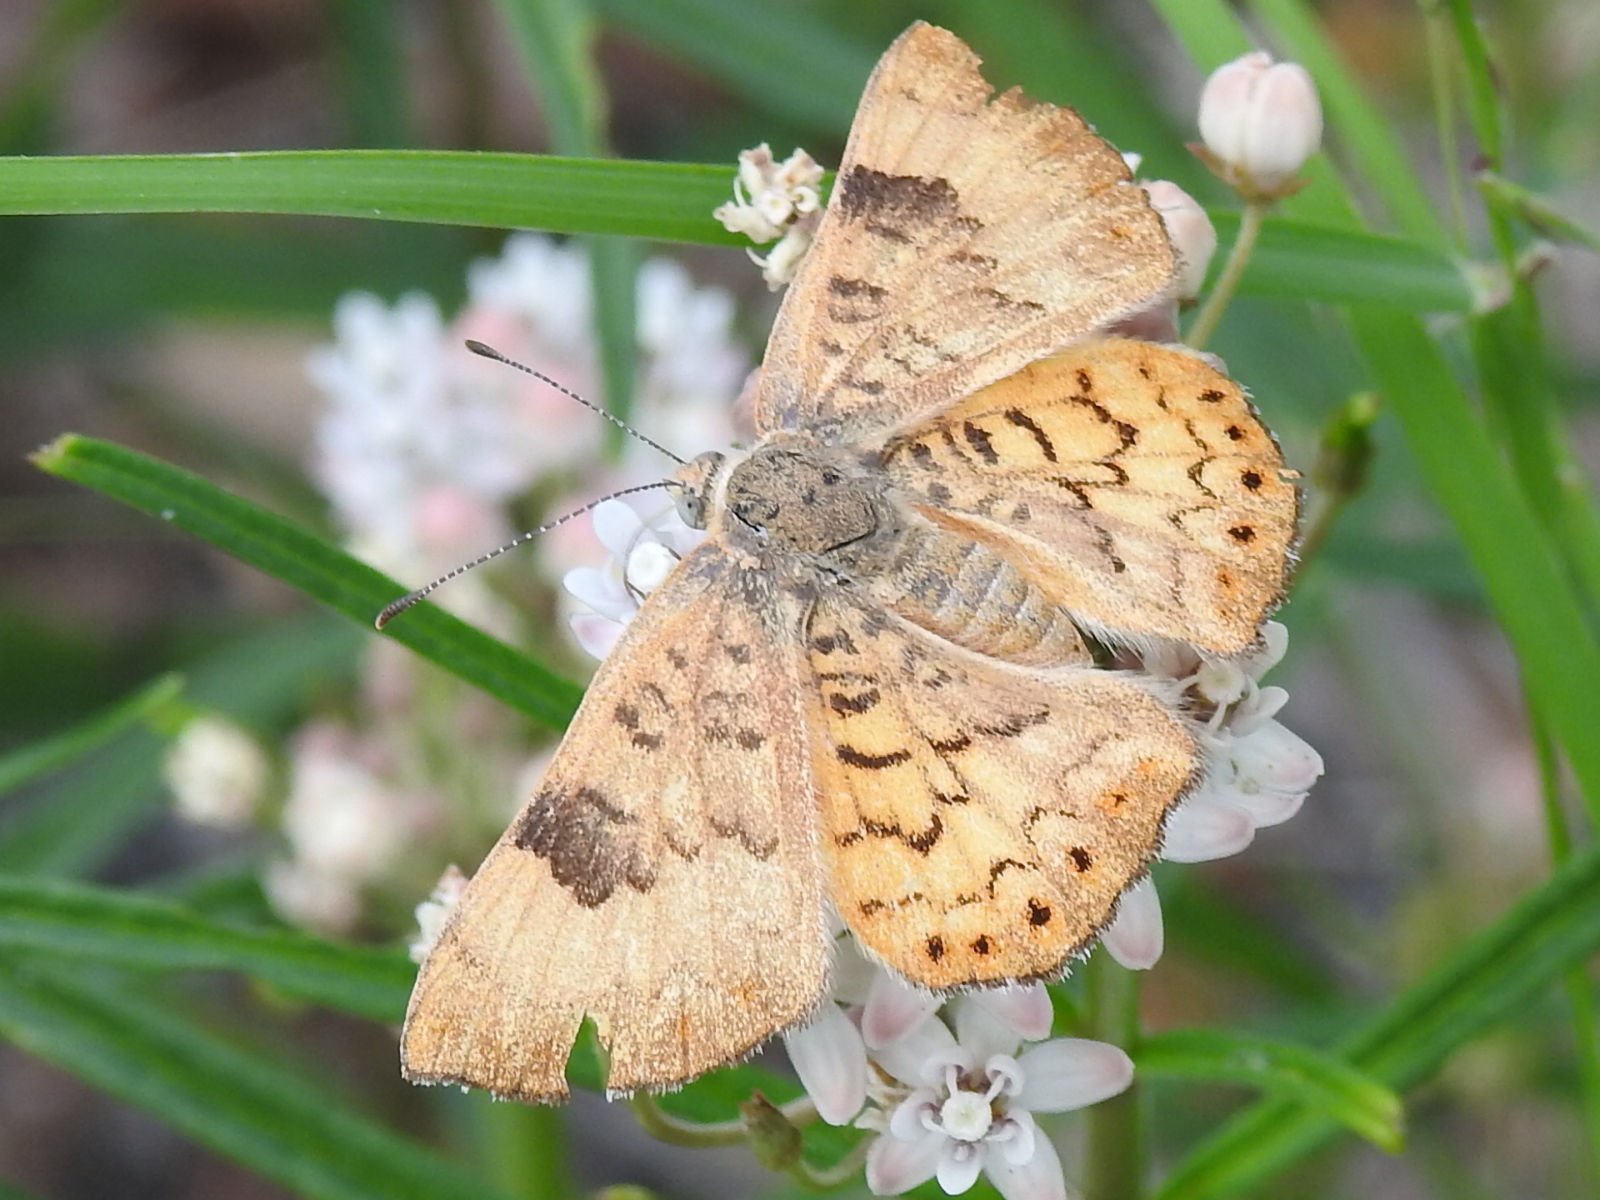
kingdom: Animalia
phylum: Arthropoda
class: Insecta
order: Lepidoptera
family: Riodinidae
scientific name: Riodinidae
